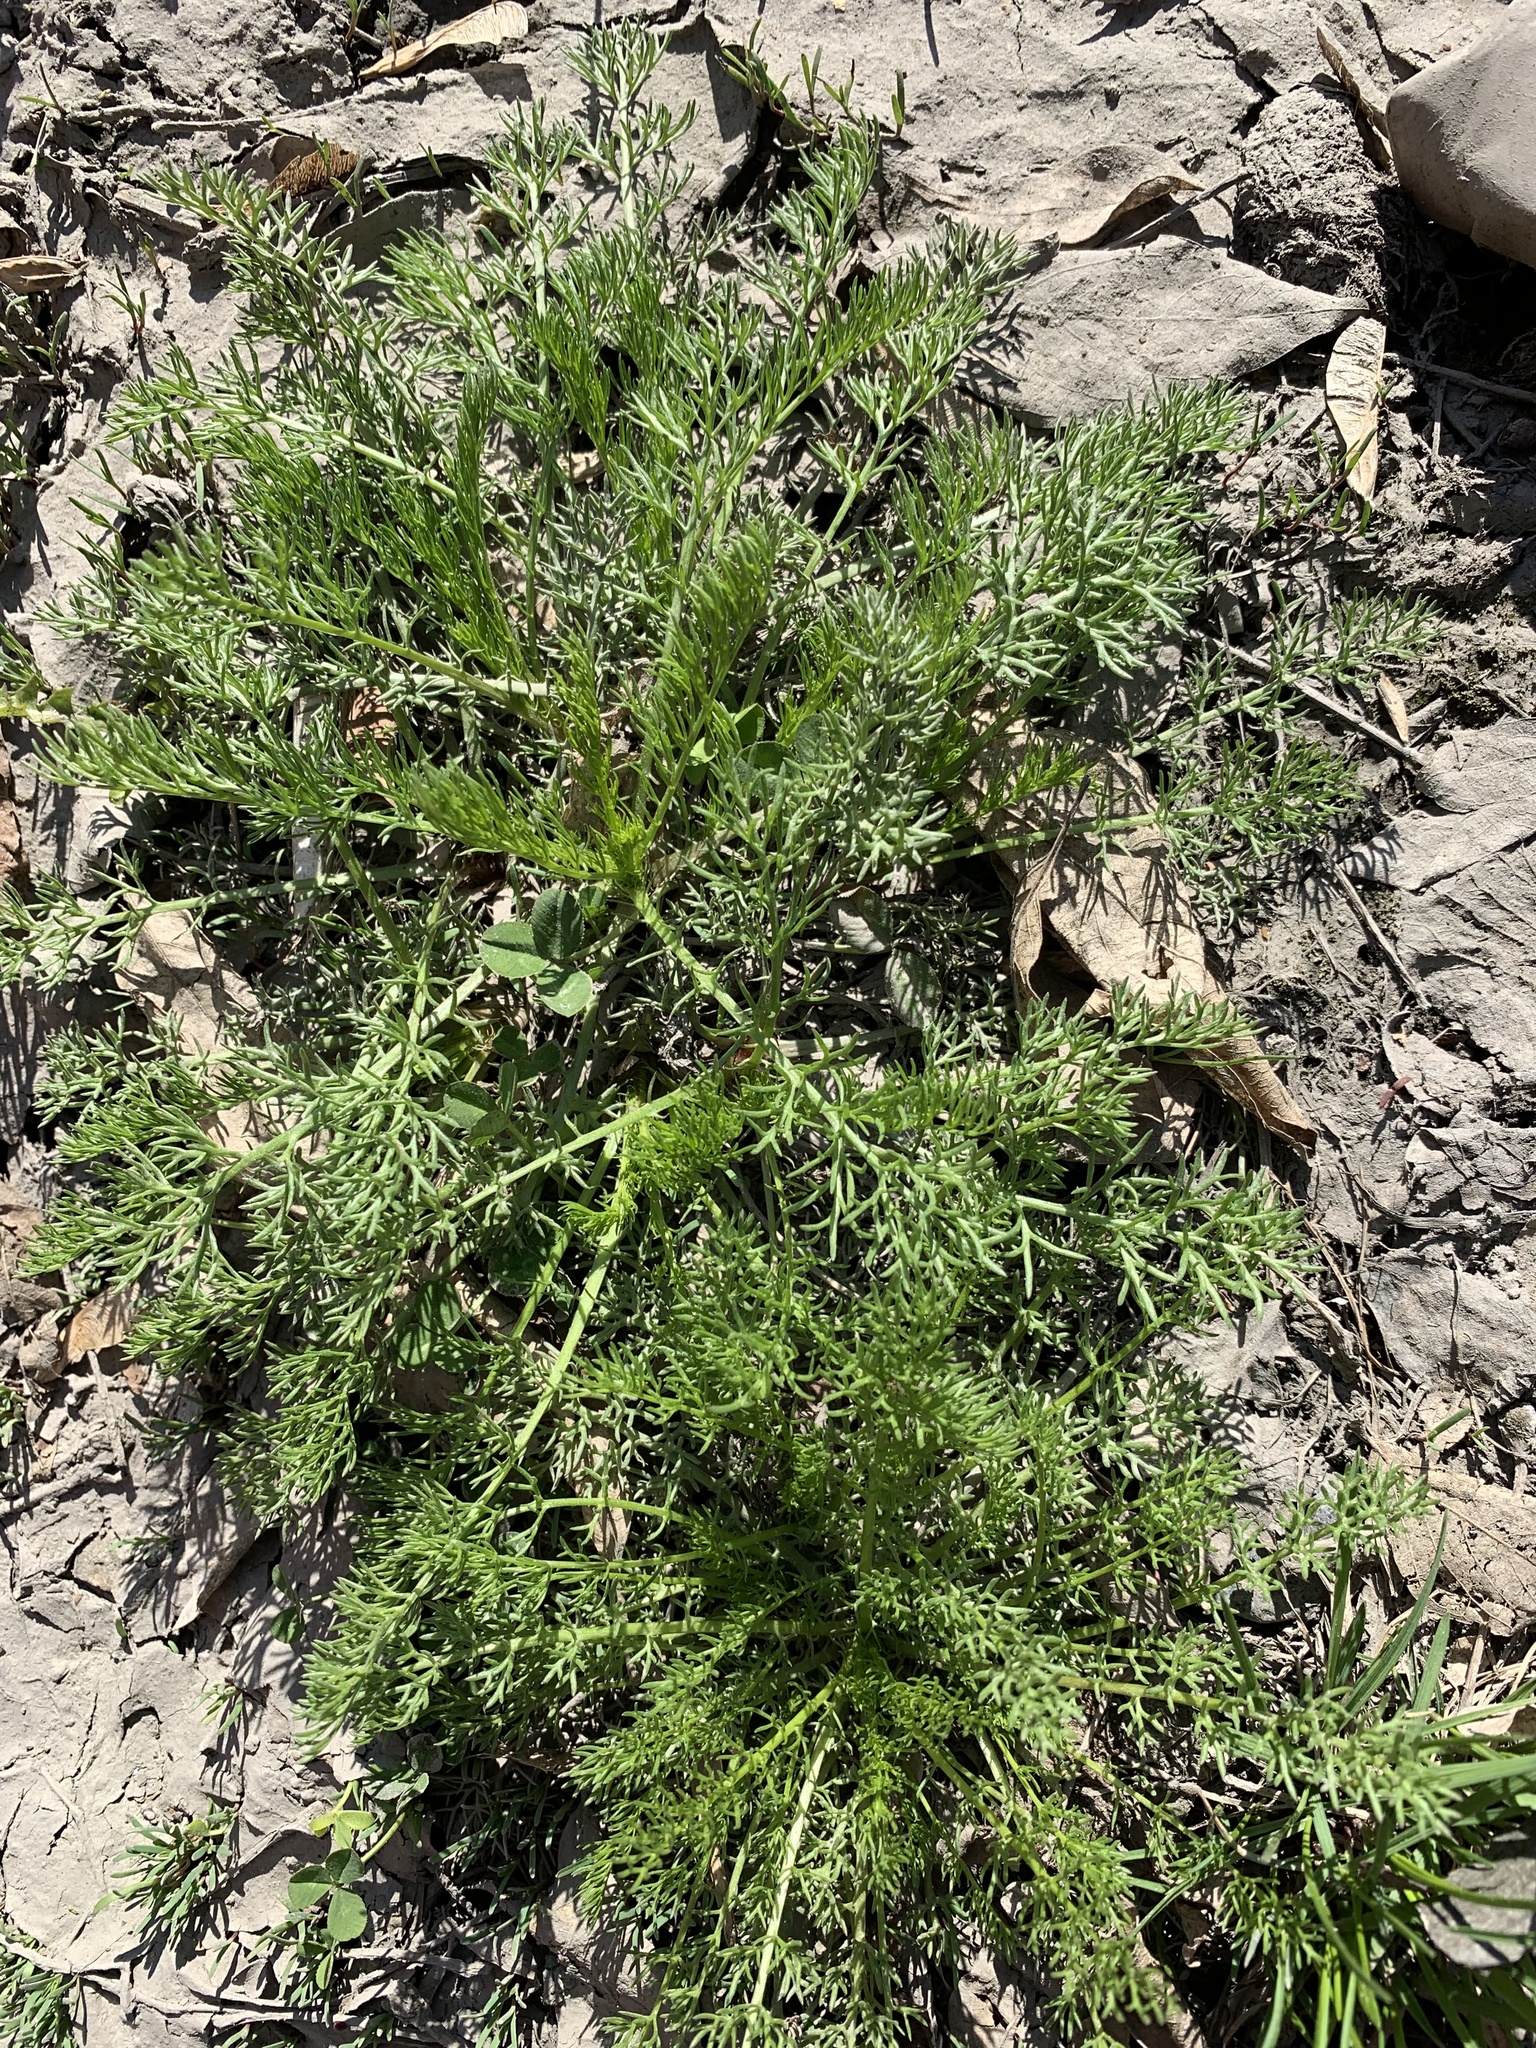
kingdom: Plantae
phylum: Tracheophyta
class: Magnoliopsida
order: Asterales
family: Asteraceae
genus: Tripleurospermum
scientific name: Tripleurospermum inodorum
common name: Scentless mayweed
